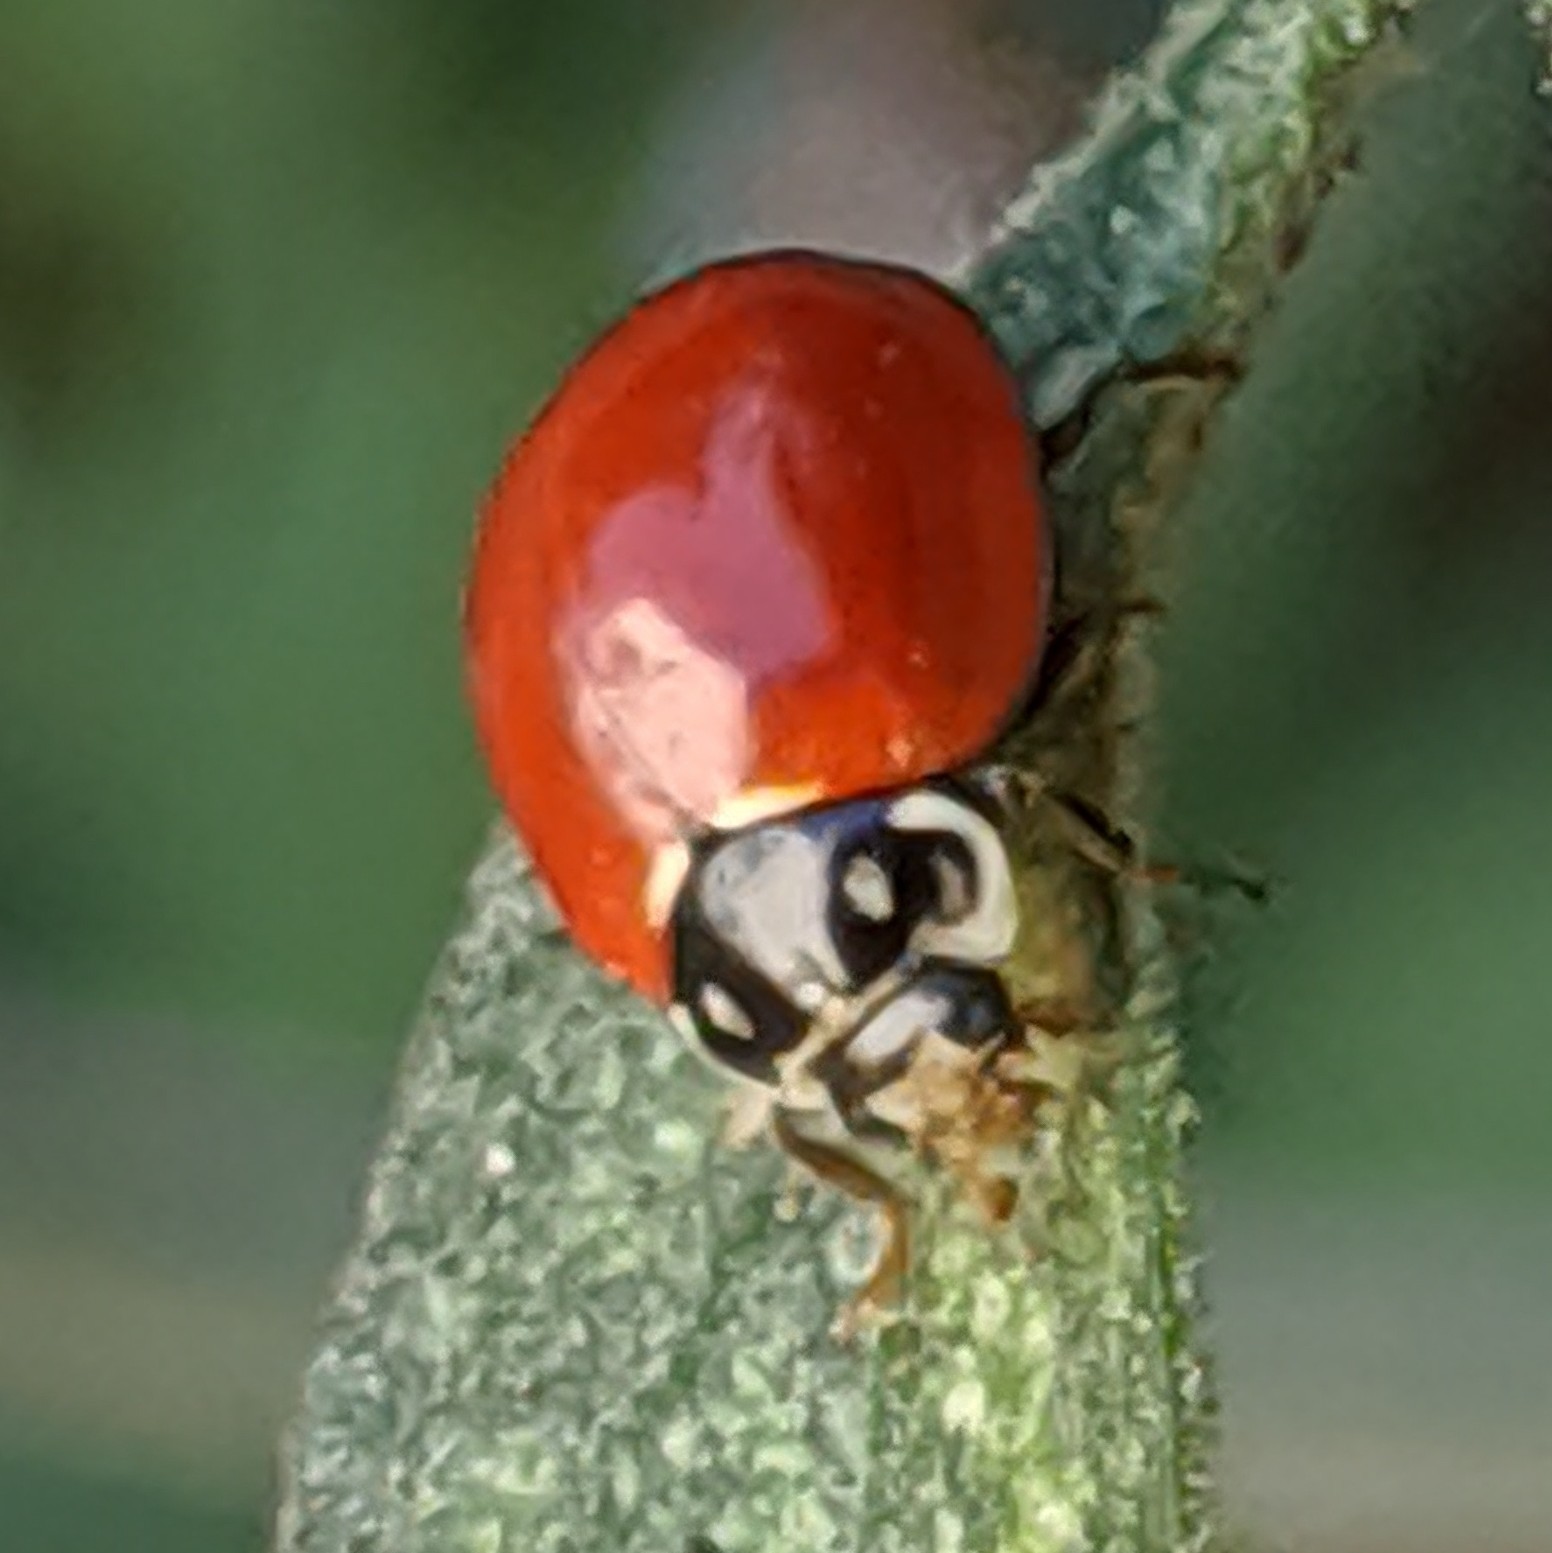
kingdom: Animalia
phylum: Arthropoda
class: Insecta
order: Coleoptera
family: Coccinellidae
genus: Cycloneda
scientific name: Cycloneda sanguinea
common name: Ladybird beetle
